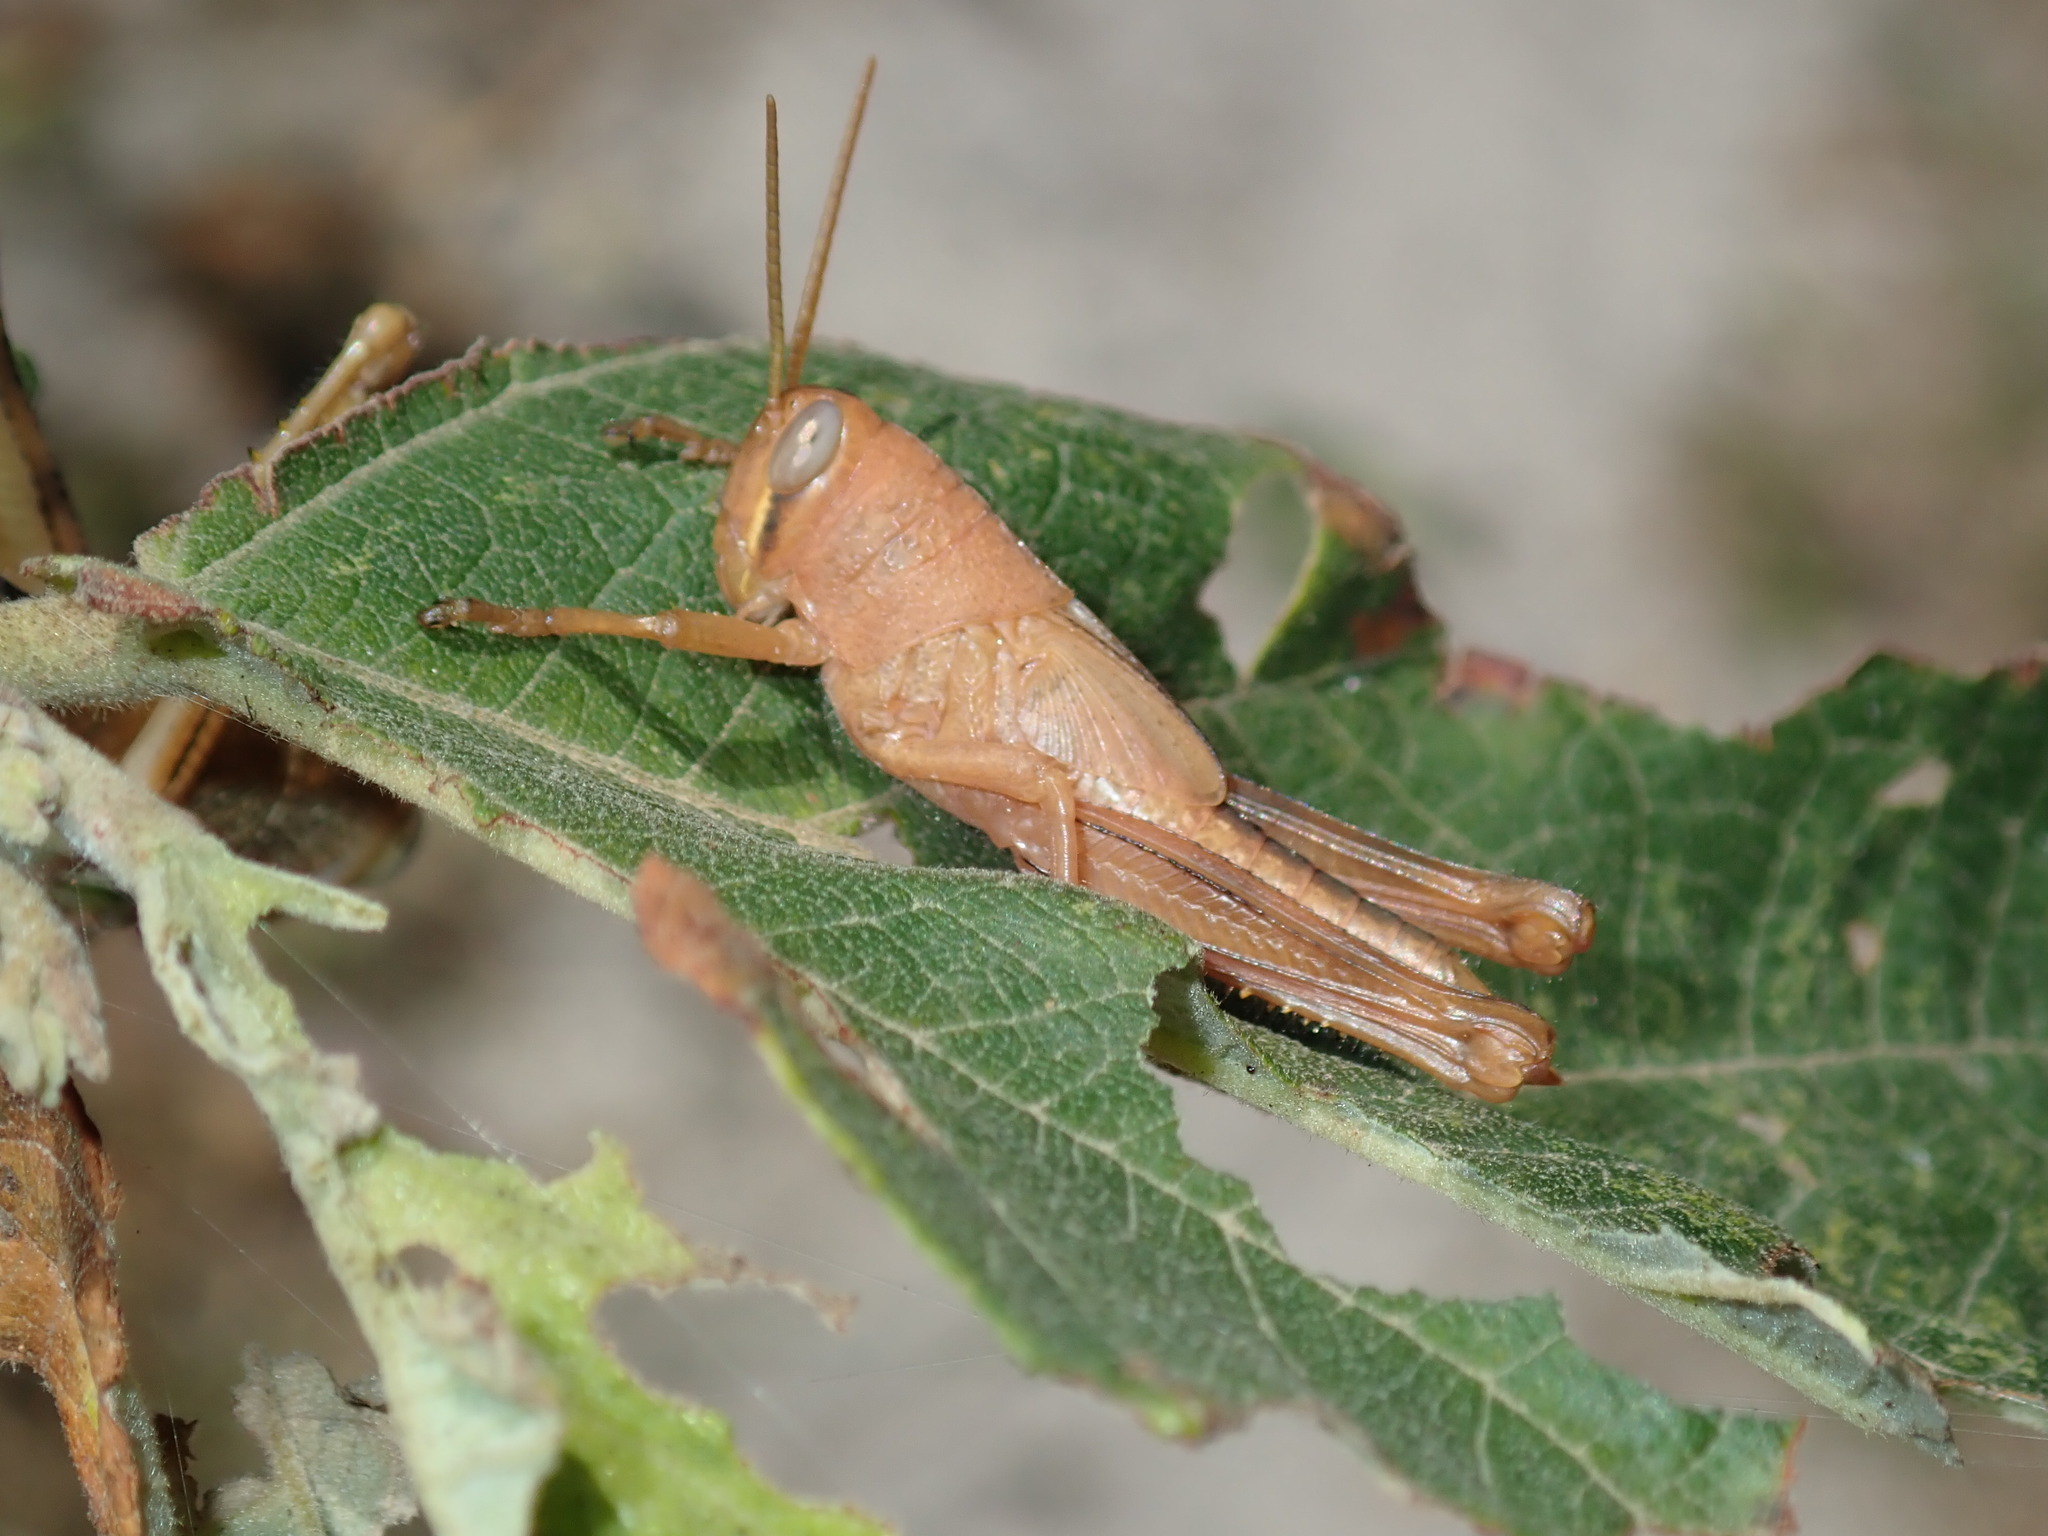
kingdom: Animalia
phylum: Arthropoda
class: Insecta
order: Orthoptera
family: Acrididae
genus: Valanga
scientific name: Valanga irregularis
